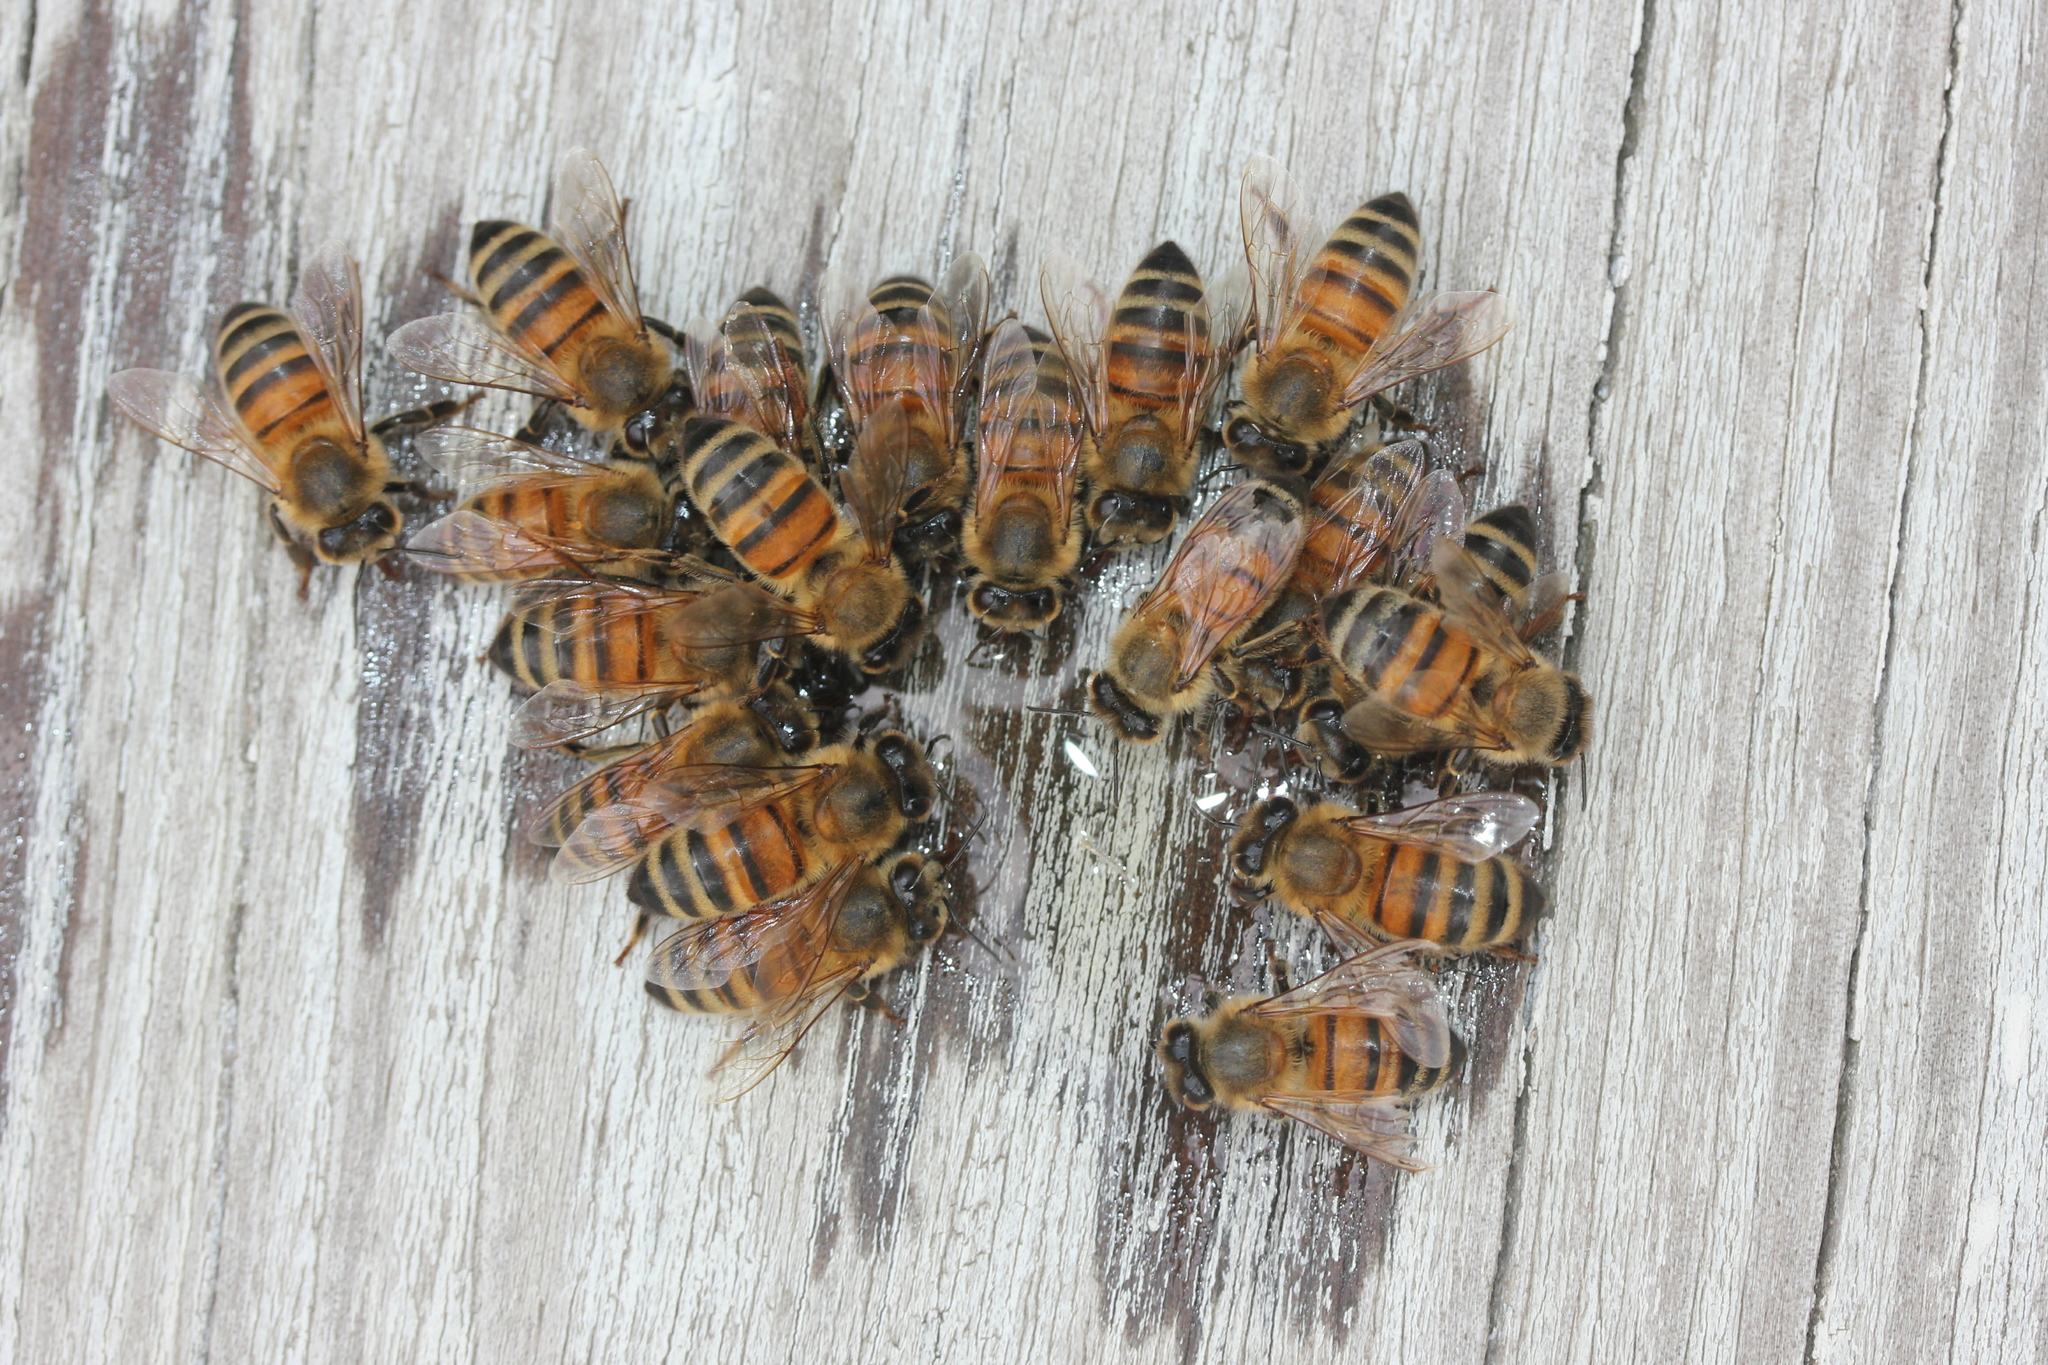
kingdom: Animalia
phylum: Arthropoda
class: Insecta
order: Hymenoptera
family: Apidae
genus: Apis
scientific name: Apis mellifera
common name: Honey bee
